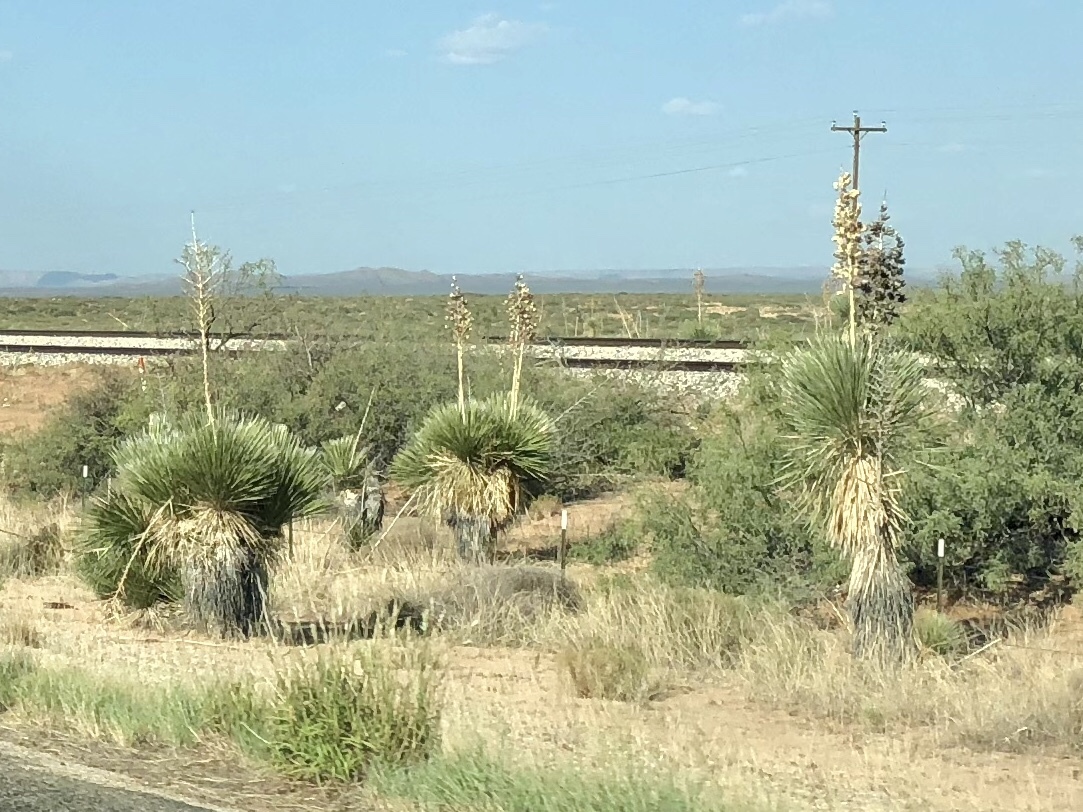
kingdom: Plantae
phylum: Tracheophyta
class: Liliopsida
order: Asparagales
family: Asparagaceae
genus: Yucca
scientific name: Yucca elata
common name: Palmella
